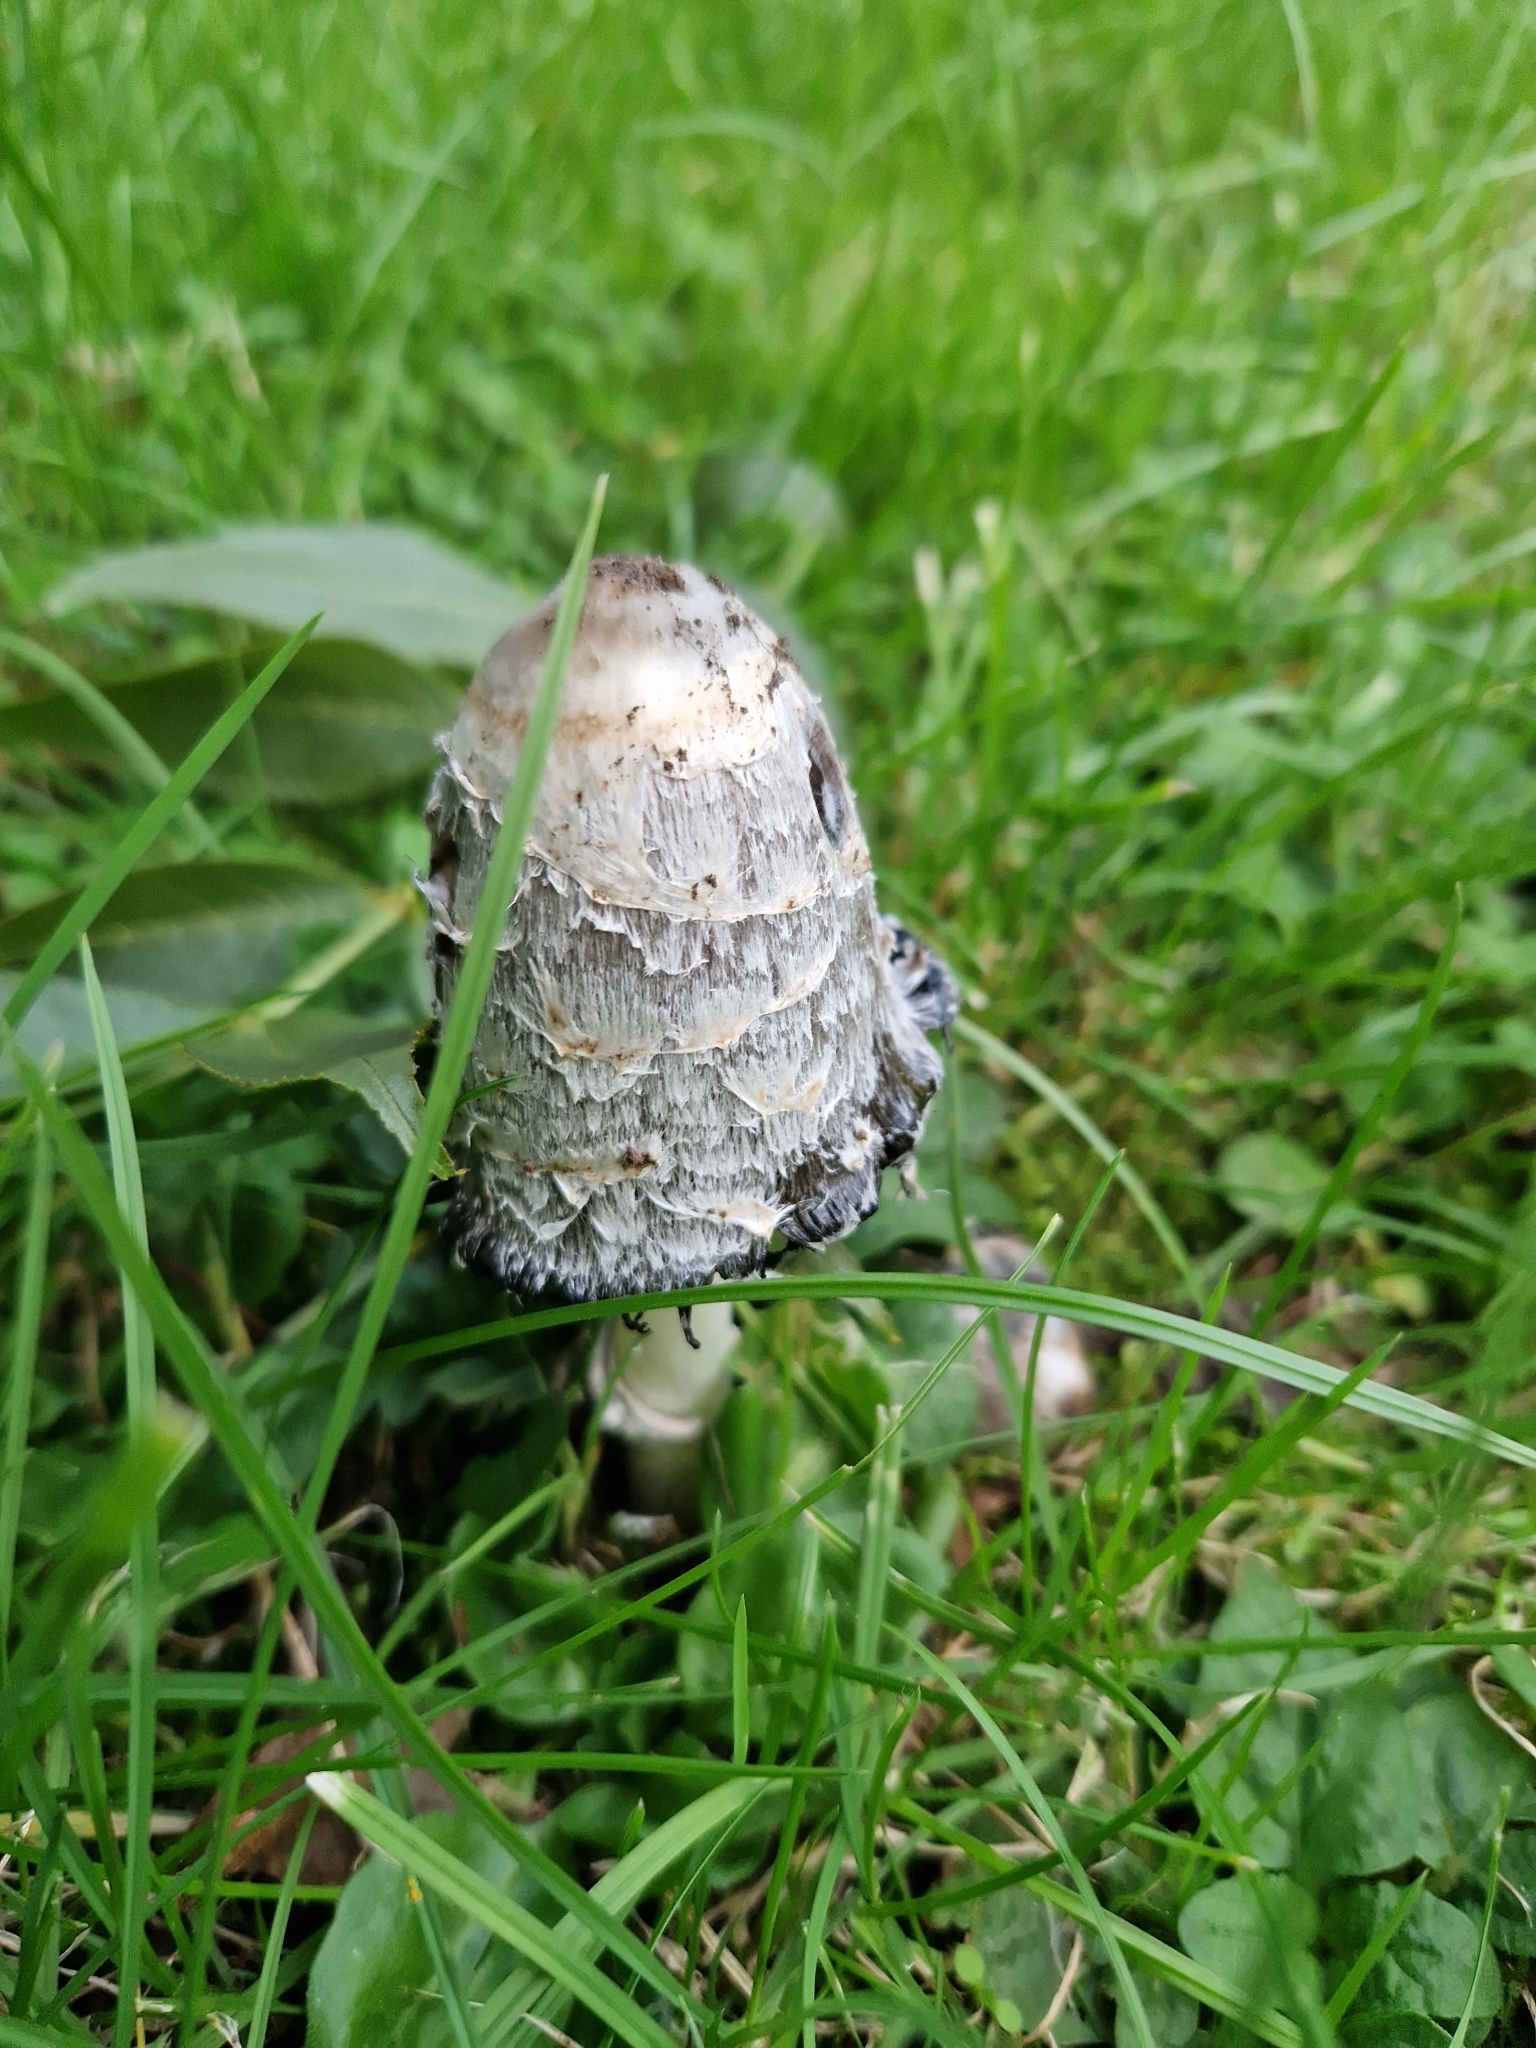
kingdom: Fungi
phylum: Basidiomycota
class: Agaricomycetes
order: Agaricales
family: Agaricaceae
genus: Coprinus
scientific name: Coprinus comatus
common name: Lawyer's wig
